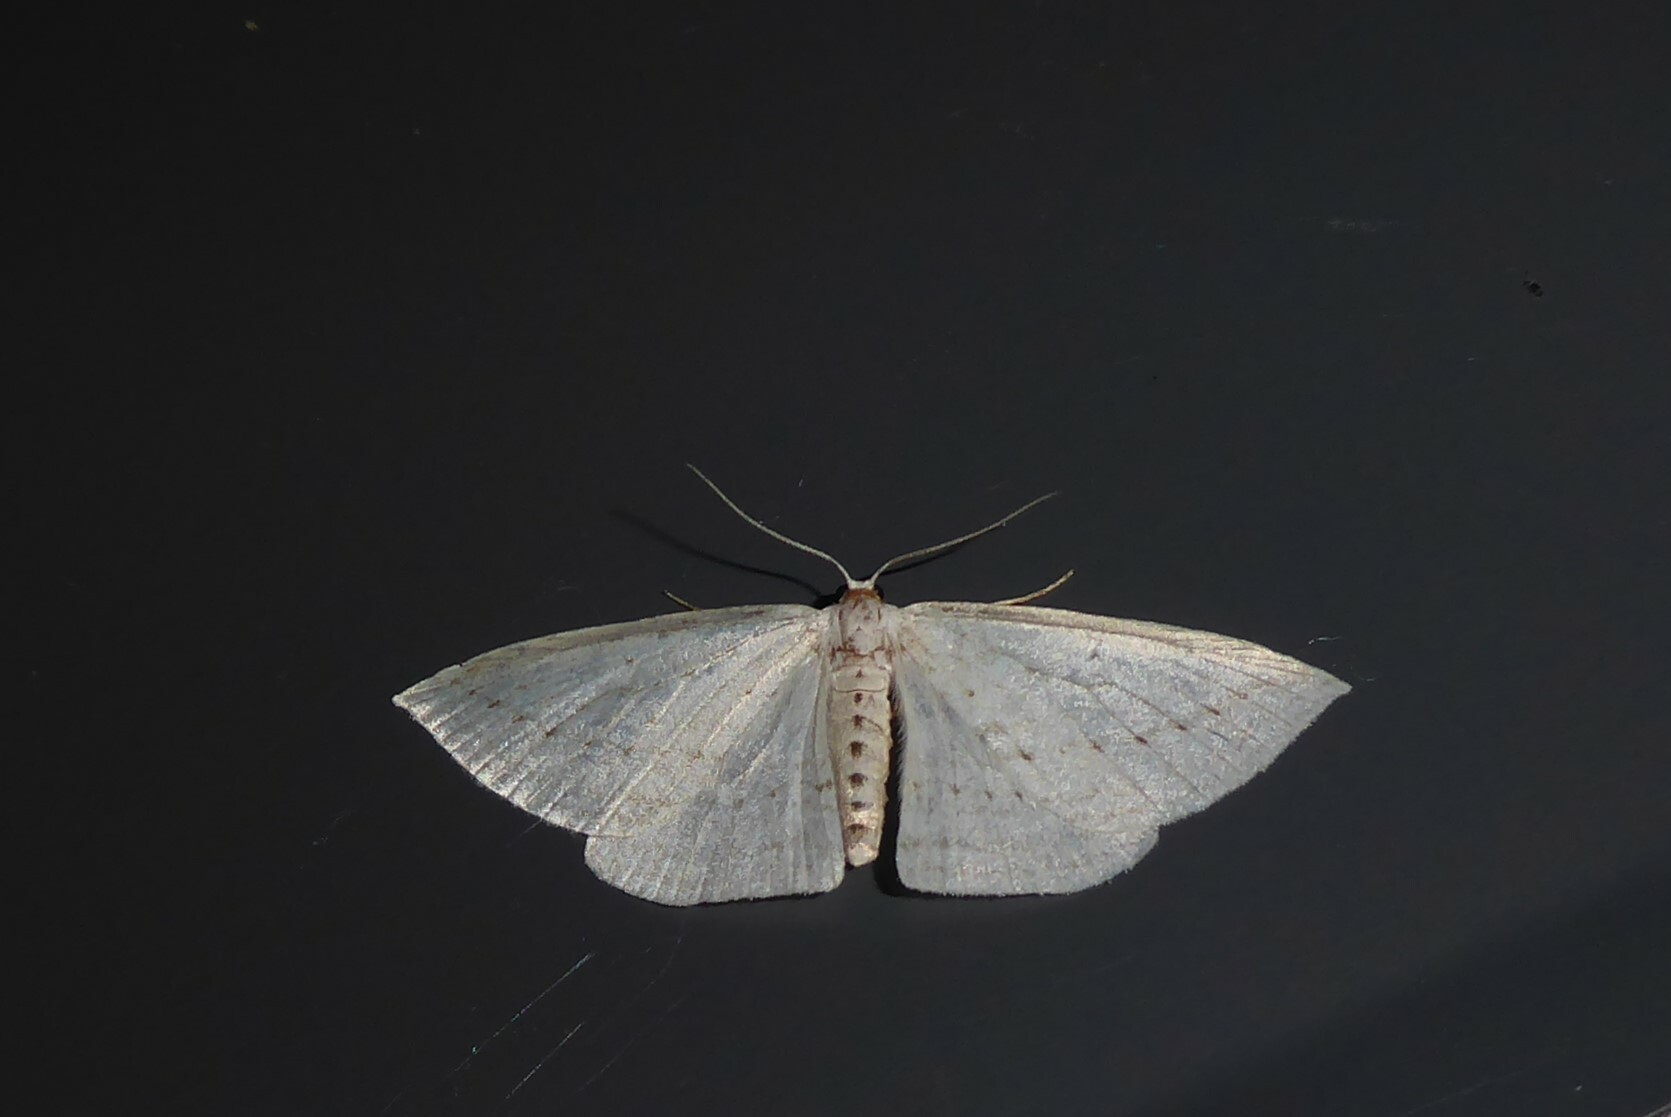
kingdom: Animalia
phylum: Arthropoda
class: Insecta
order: Lepidoptera
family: Geometridae
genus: Orthoclydon
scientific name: Orthoclydon praefectata
